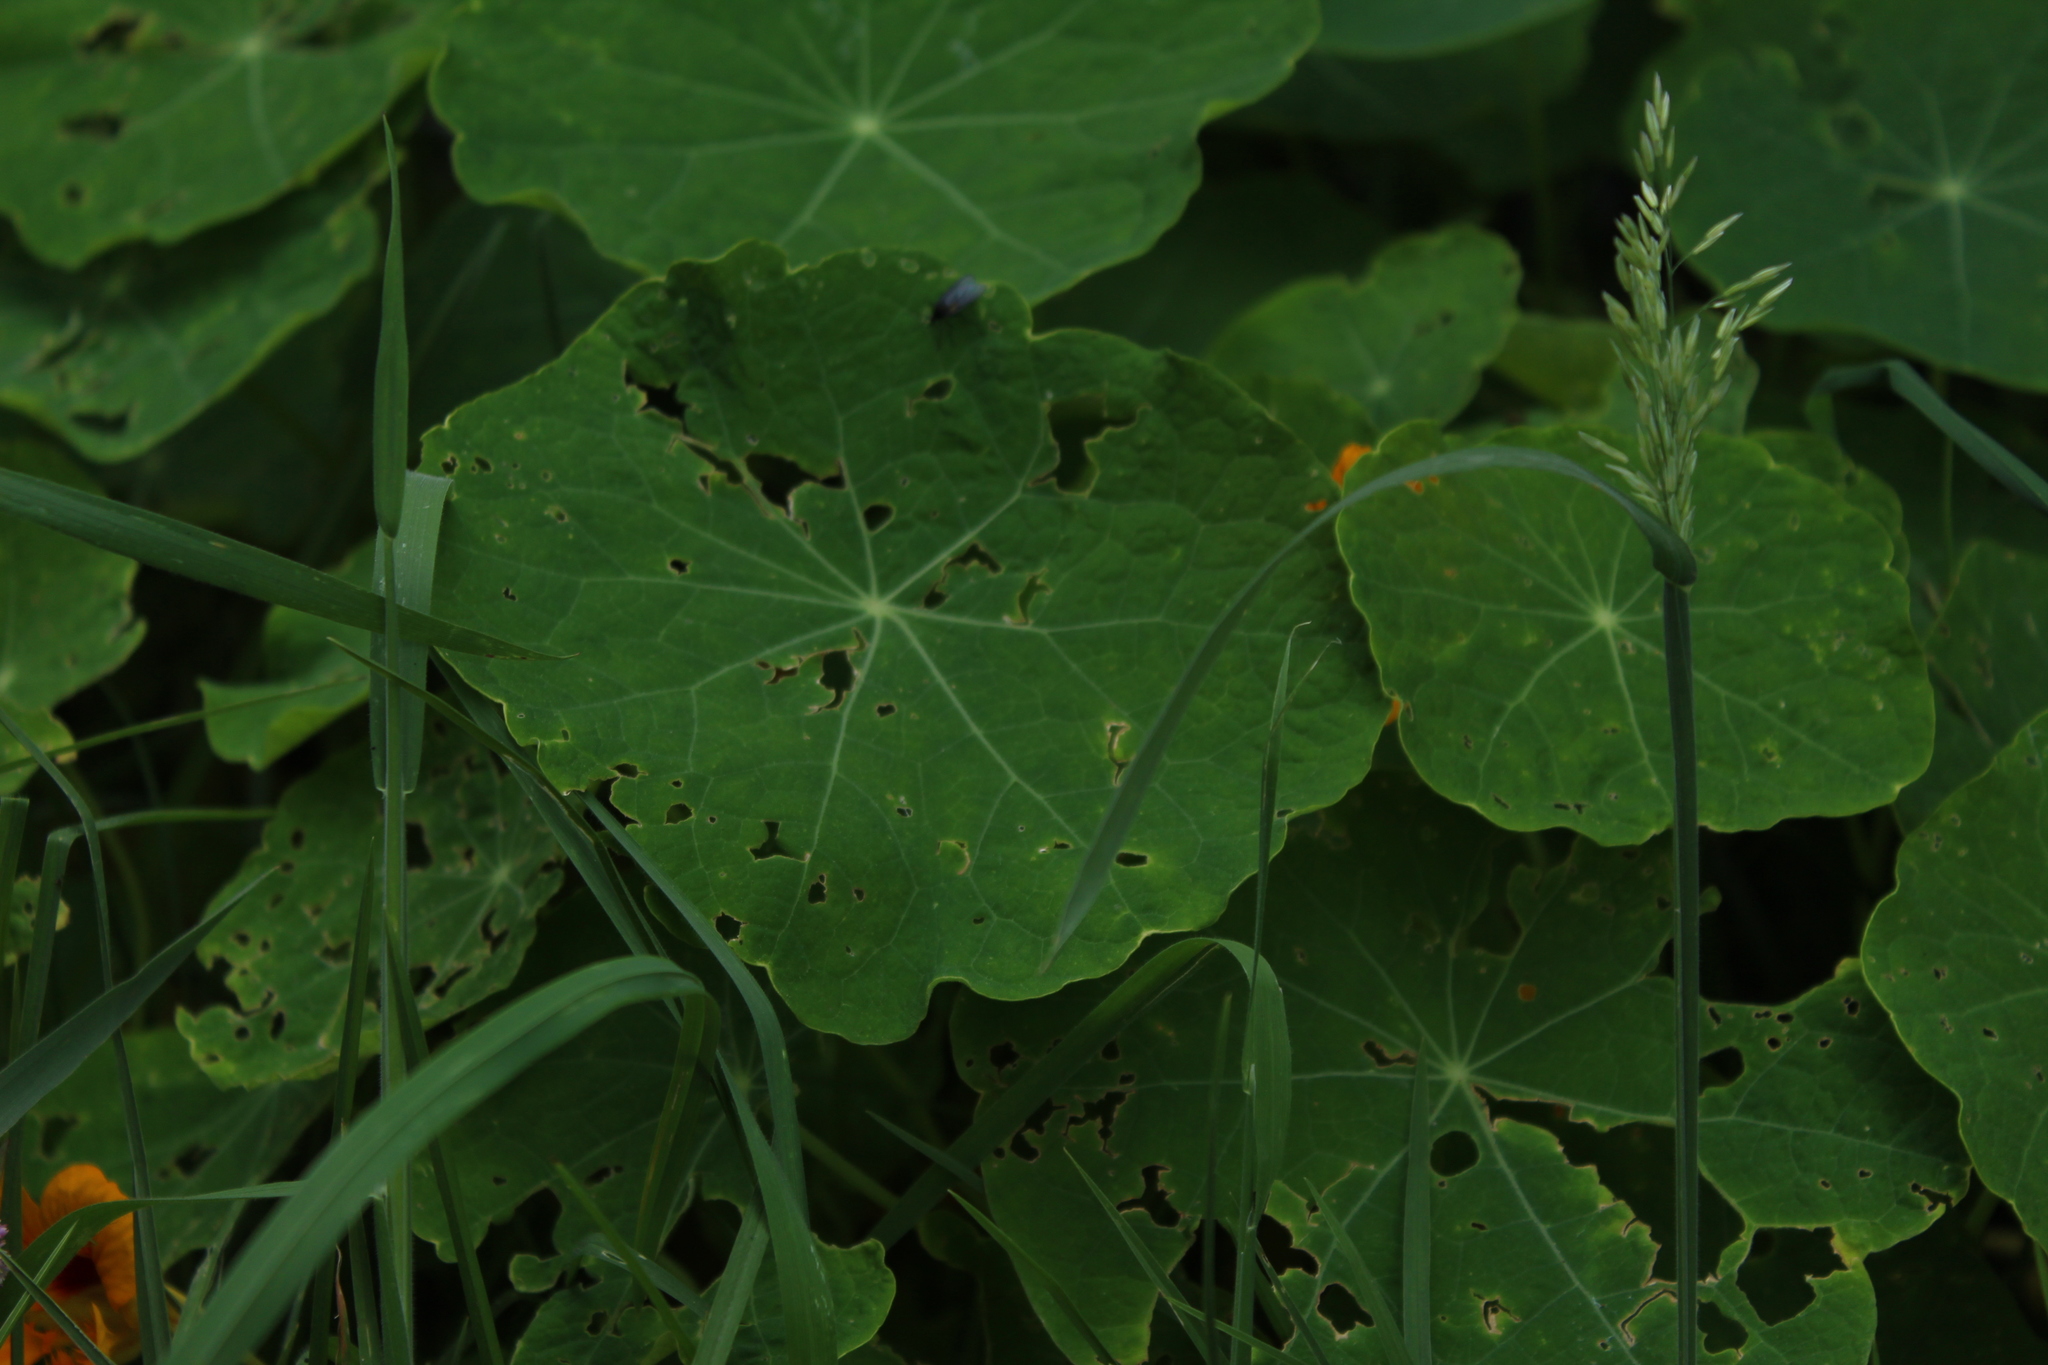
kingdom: Plantae
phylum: Tracheophyta
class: Magnoliopsida
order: Brassicales
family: Tropaeolaceae
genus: Tropaeolum
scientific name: Tropaeolum majus
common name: Nasturtium
